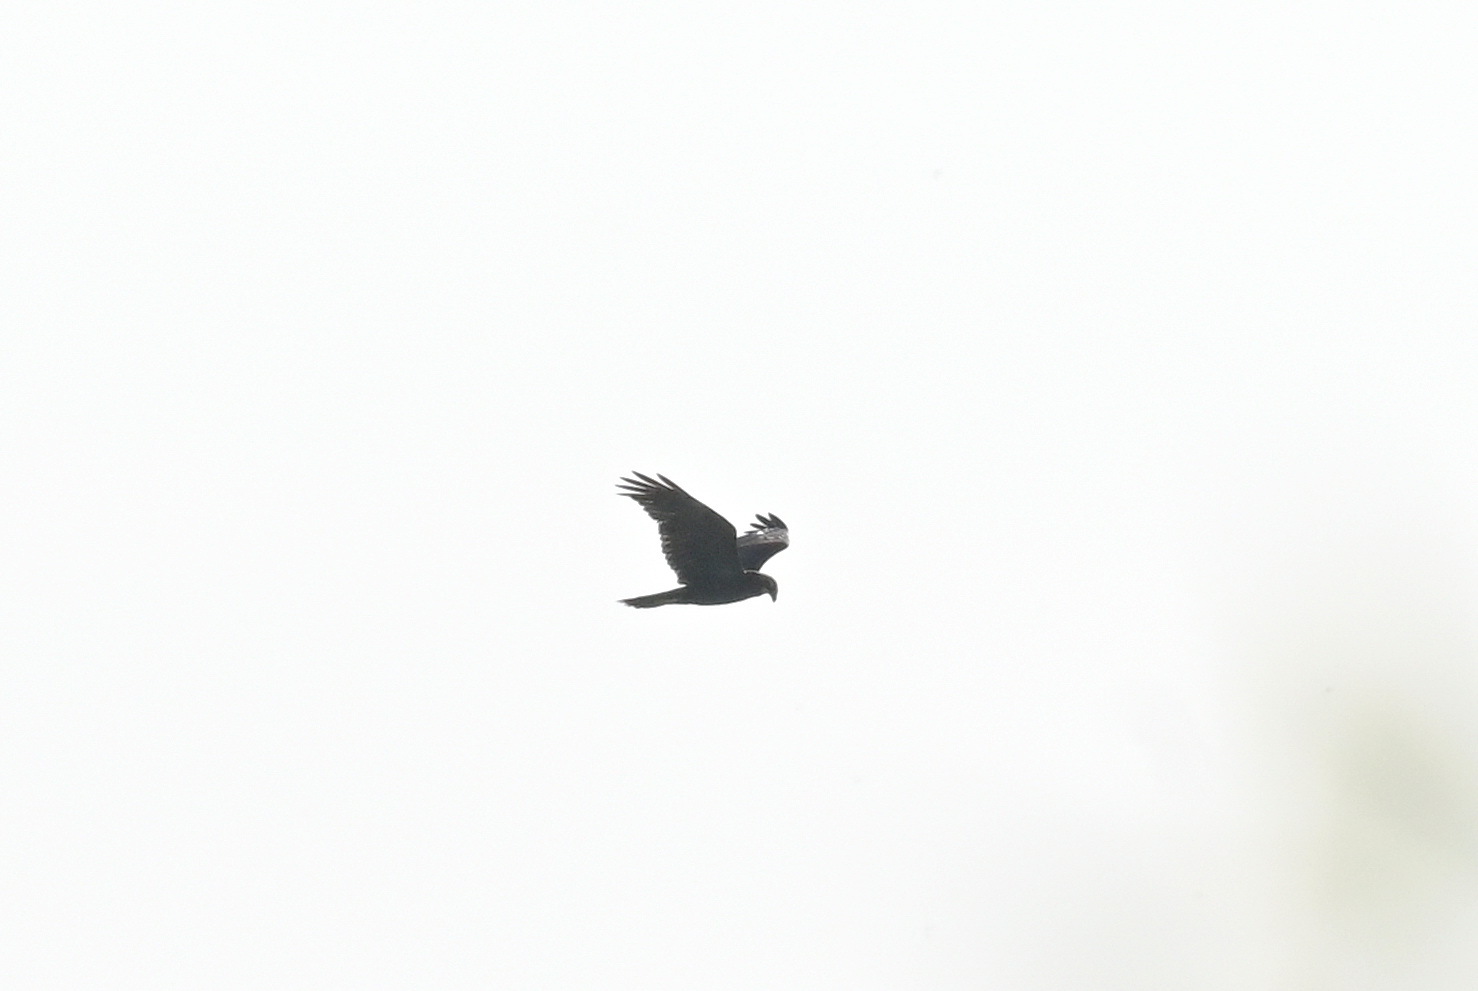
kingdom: Animalia
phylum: Chordata
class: Aves
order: Accipitriformes
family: Accipitridae
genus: Circus
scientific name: Circus aeruginosus
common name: Western marsh harrier
